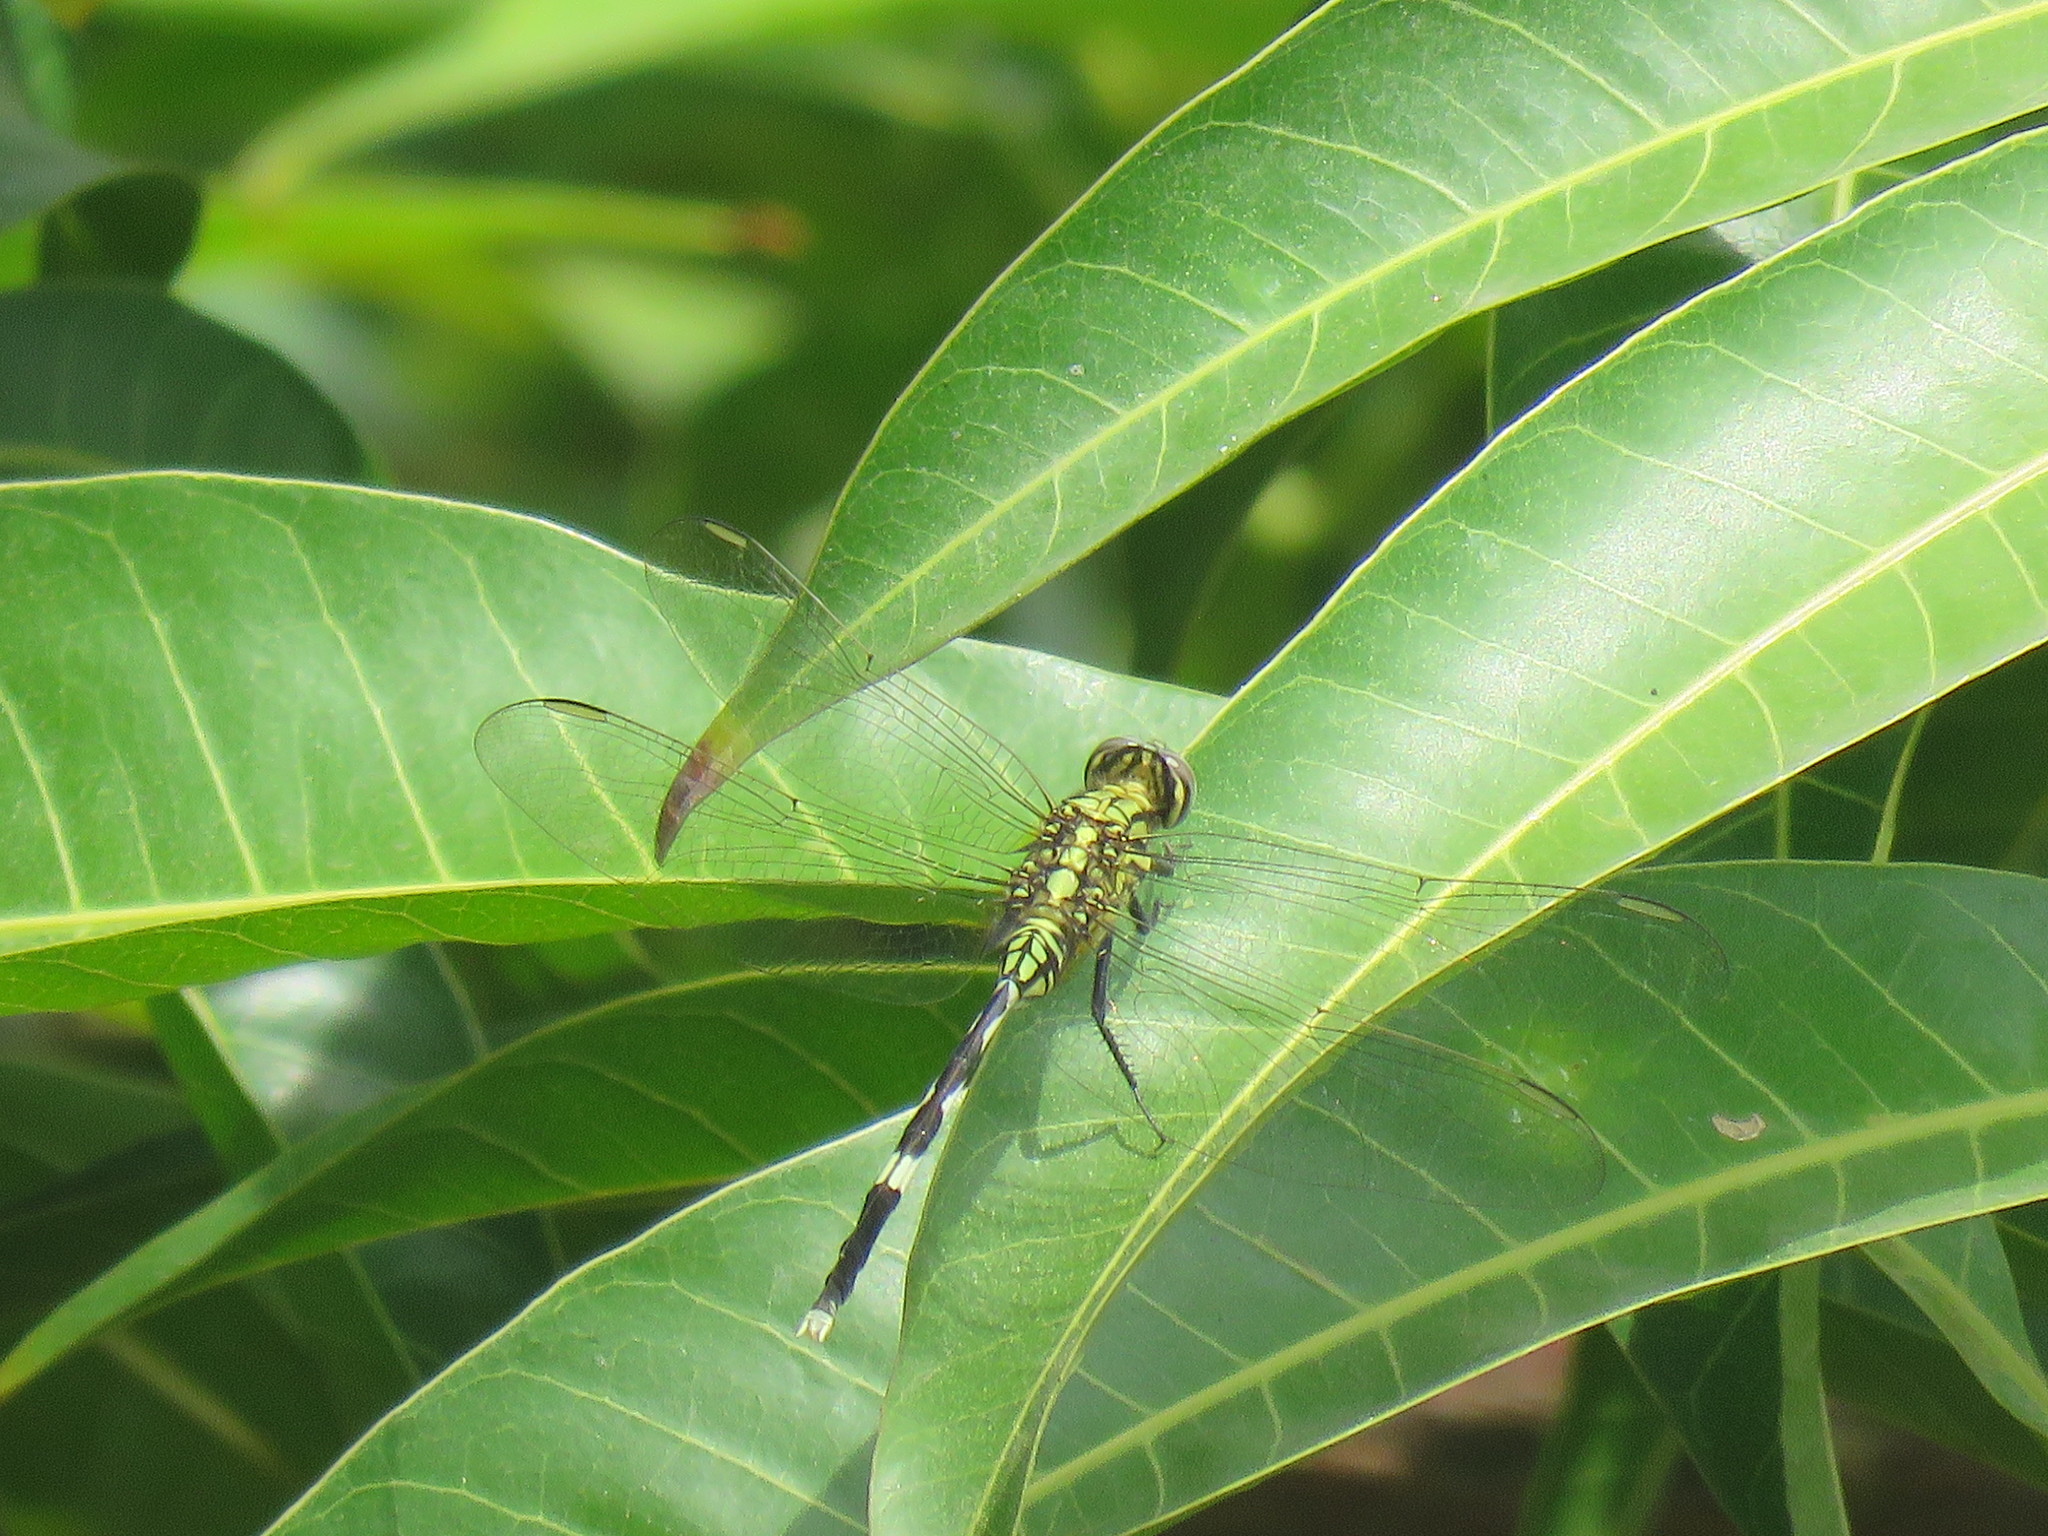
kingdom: Animalia
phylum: Arthropoda
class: Insecta
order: Odonata
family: Libellulidae
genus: Orthetrum
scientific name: Orthetrum sabina
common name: Slender skimmer
